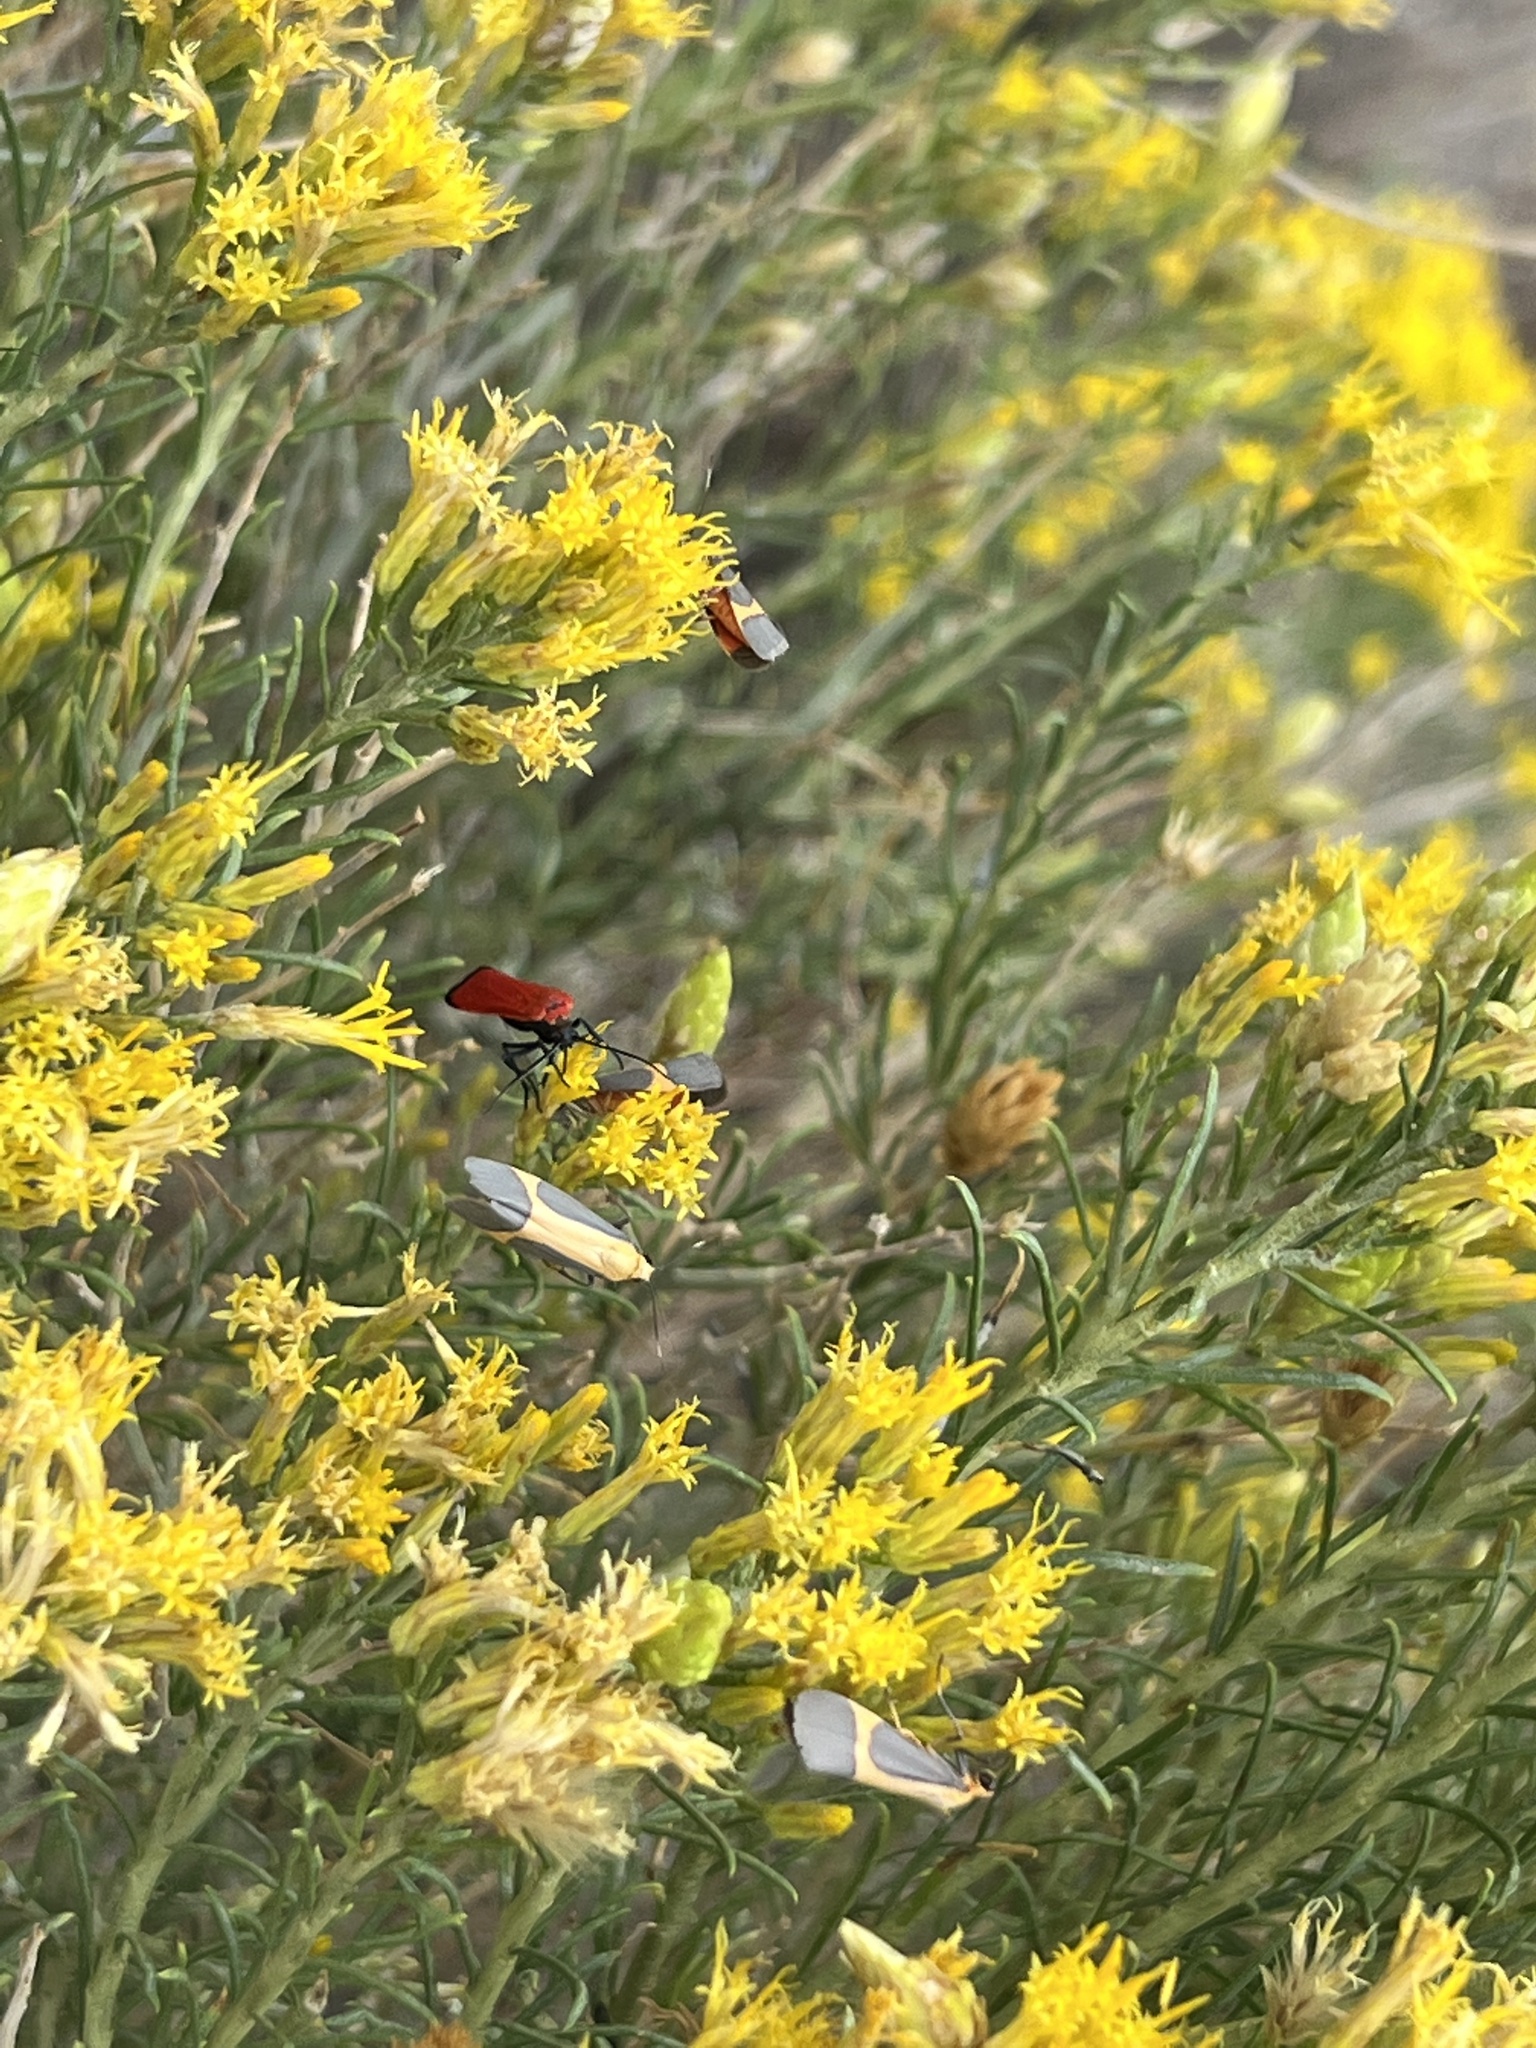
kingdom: Animalia
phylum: Arthropoda
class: Insecta
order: Lepidoptera
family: Erebidae
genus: Cisthene
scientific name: Cisthene angelus
